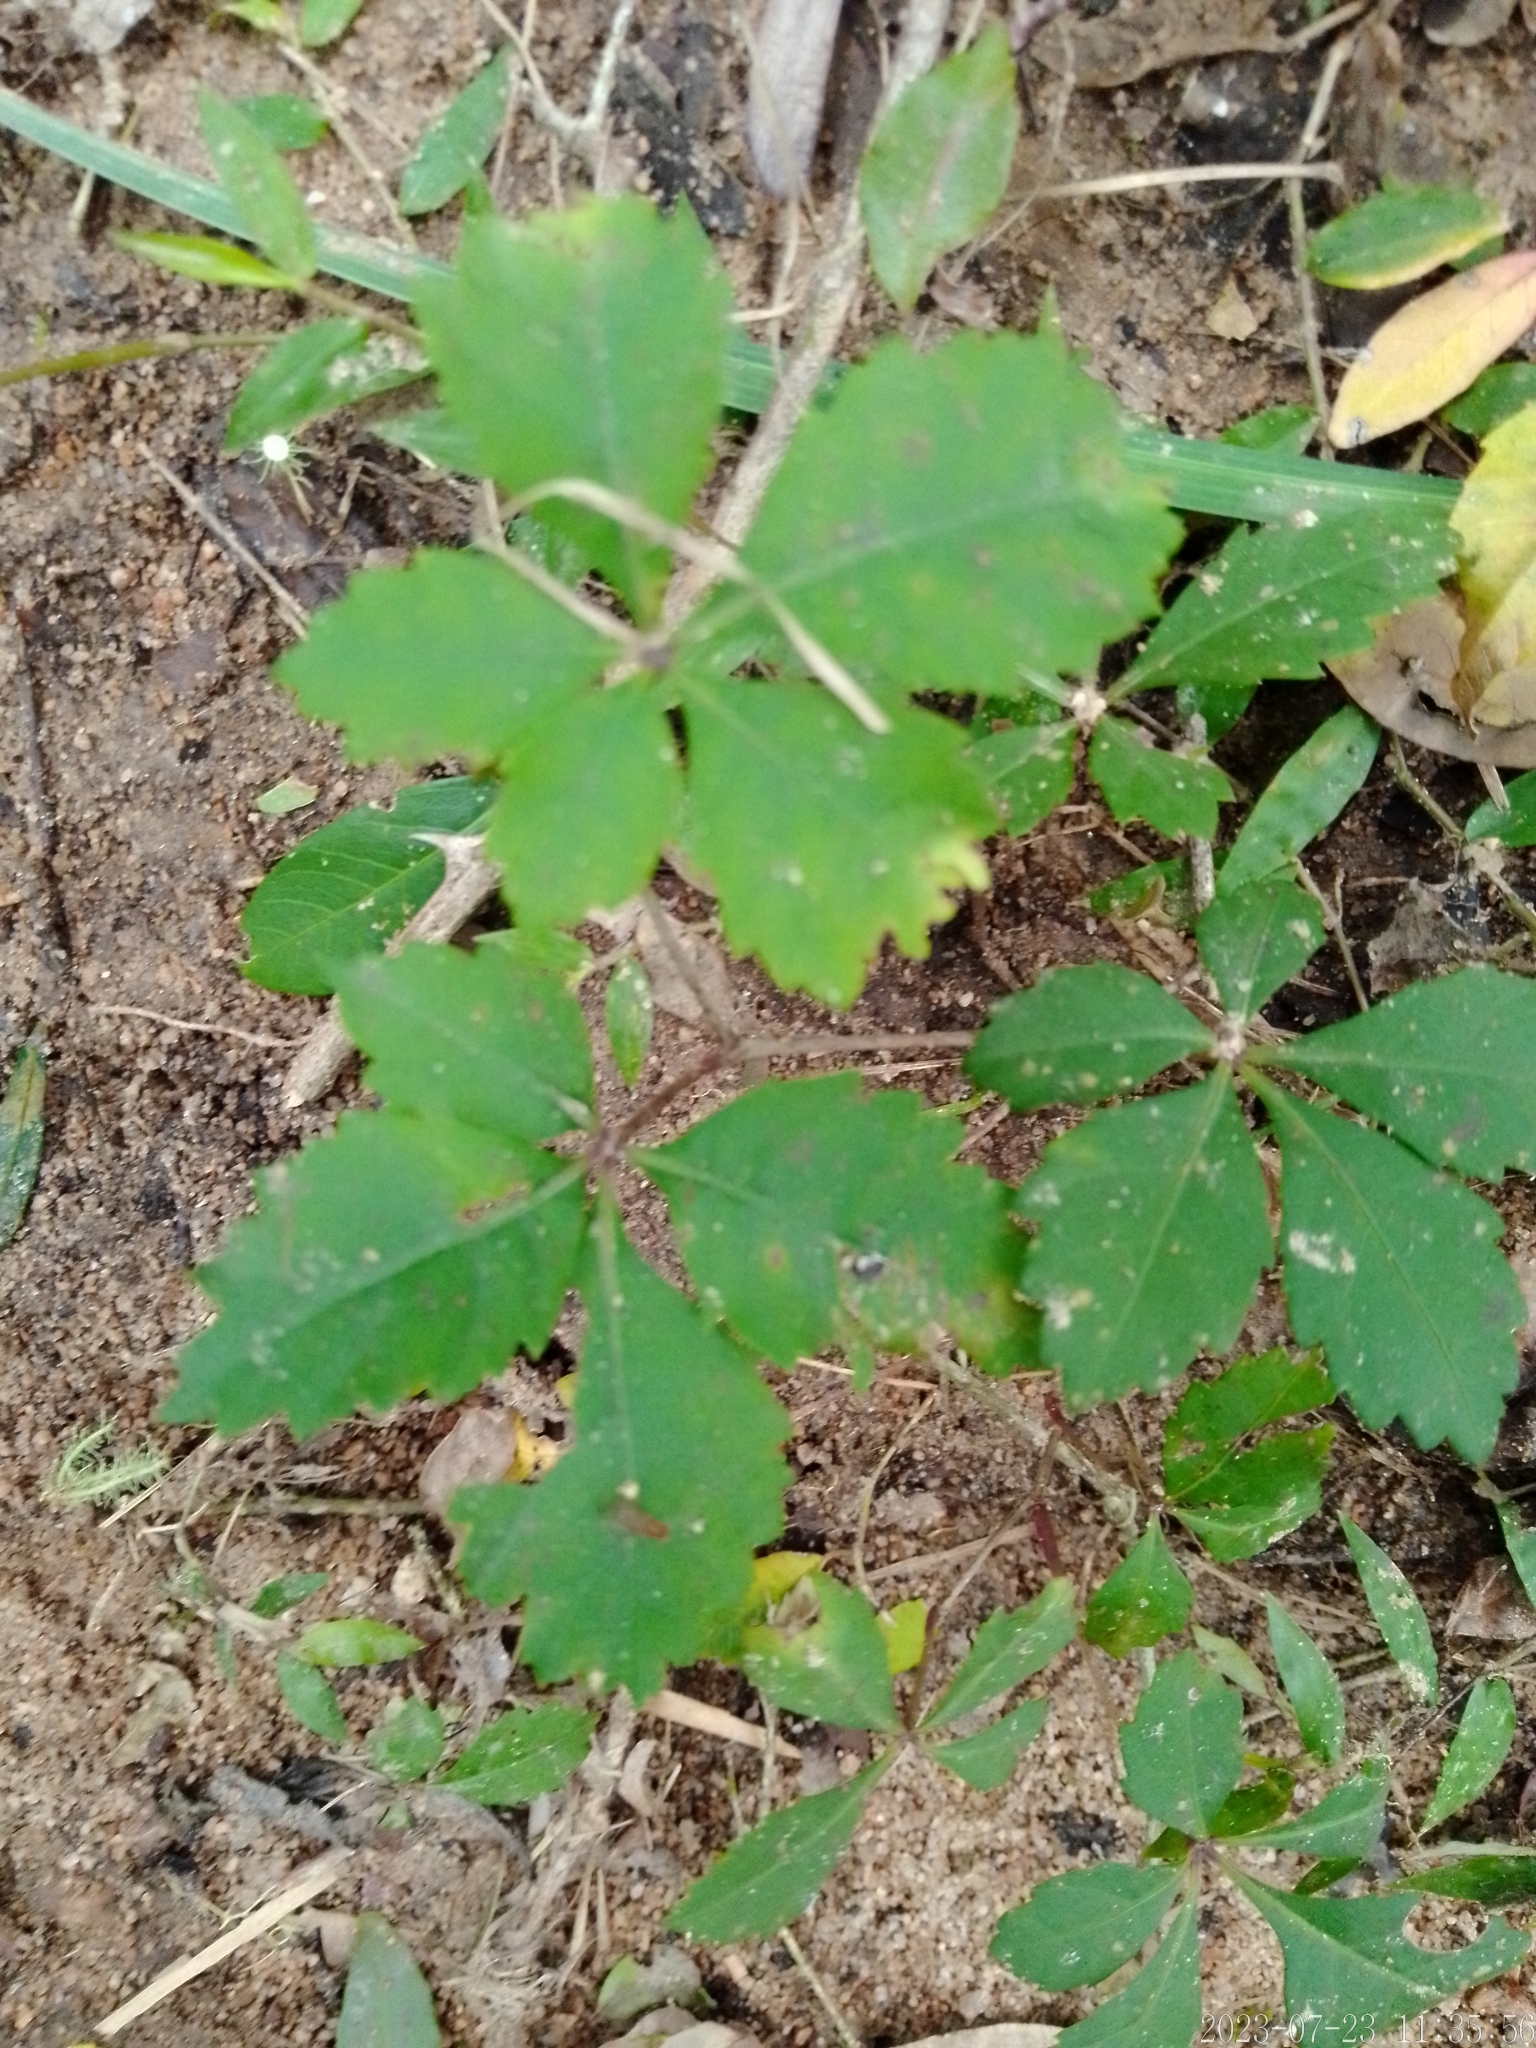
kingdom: Plantae
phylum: Tracheophyta
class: Magnoliopsida
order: Vitales
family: Vitaceae
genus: Clematicissus
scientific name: Clematicissus striata
